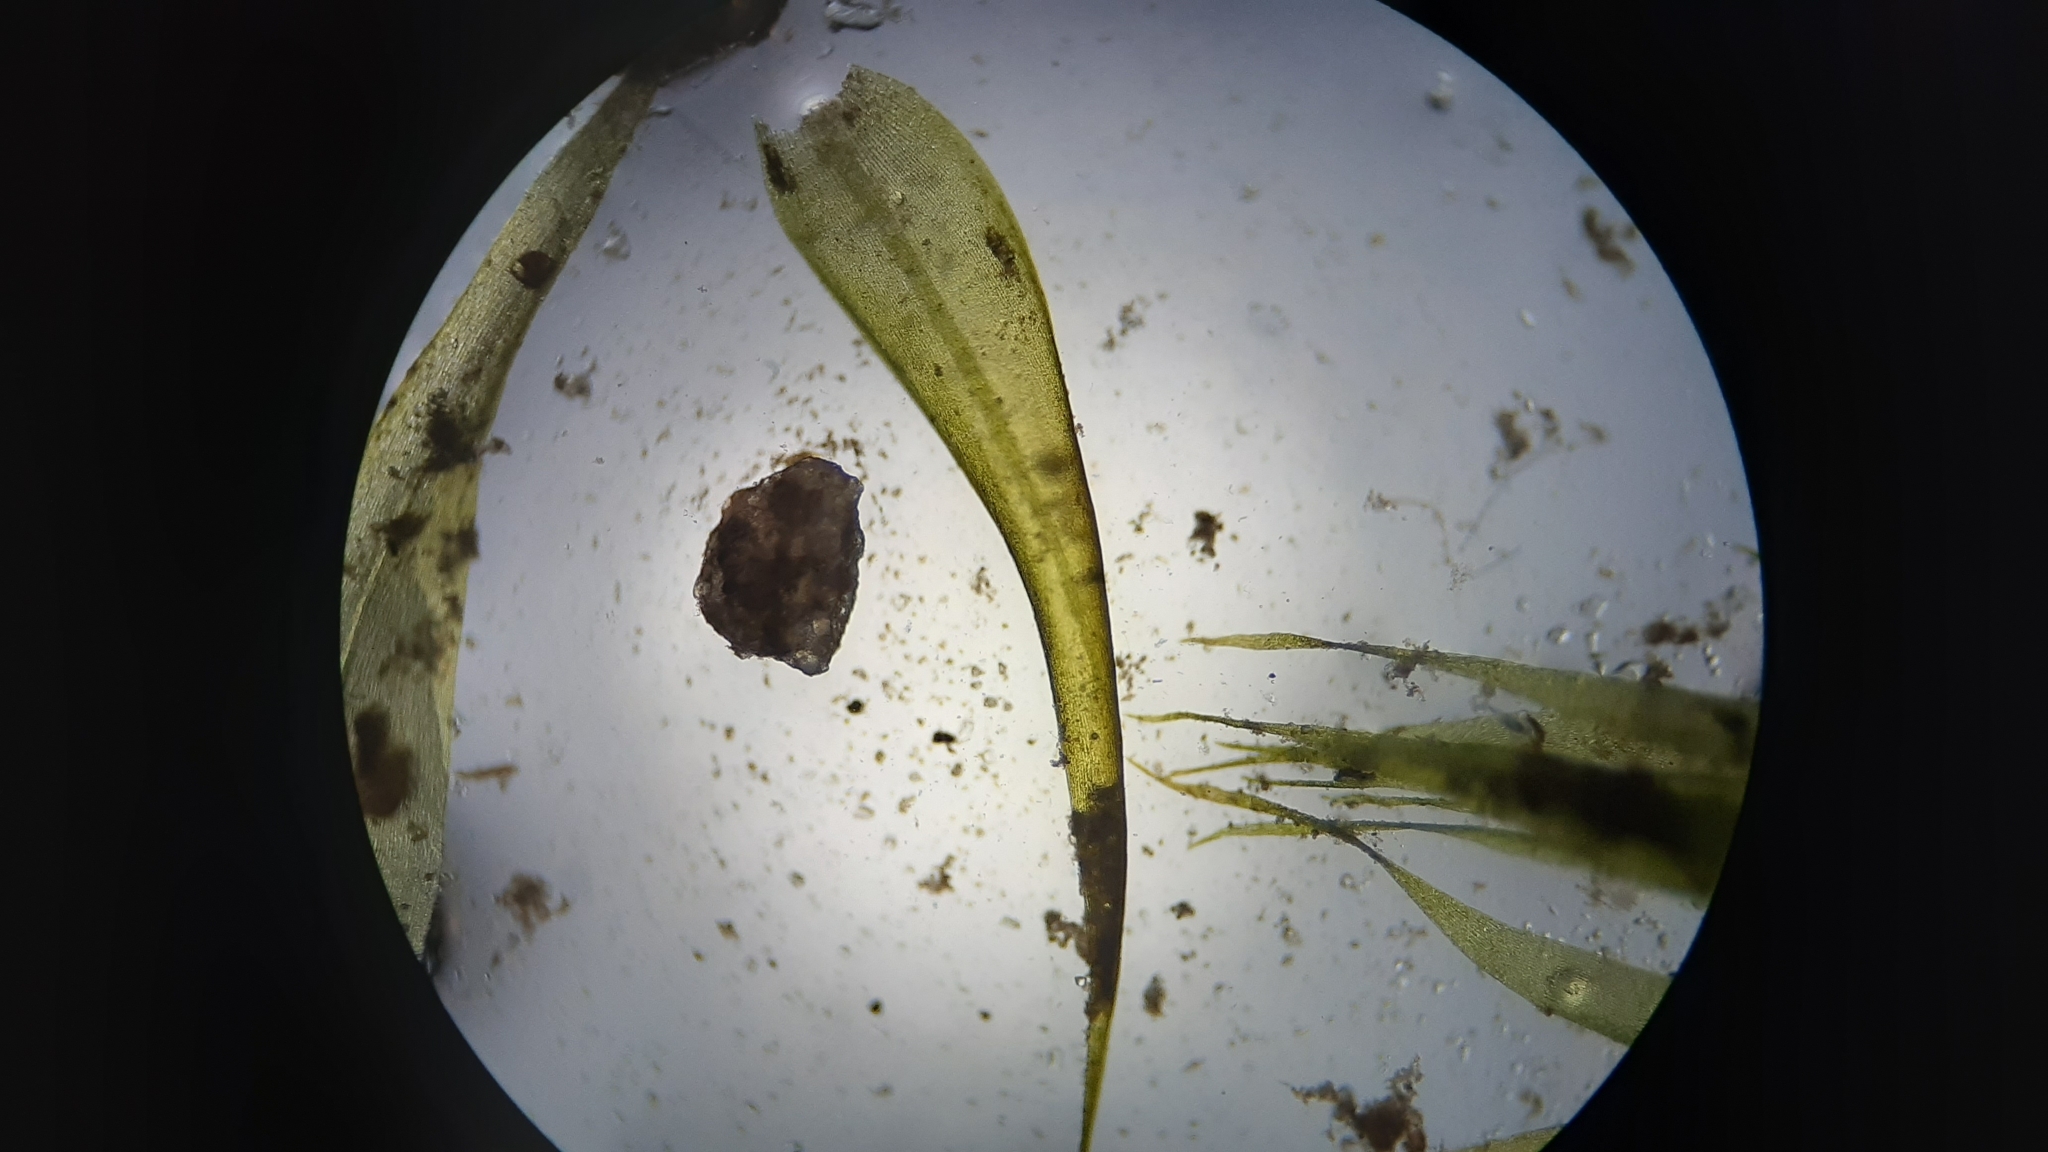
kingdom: Plantae
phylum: Bryophyta
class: Bryopsida
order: Hypnales
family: Fontinalaceae
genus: Dichelyma
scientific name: Dichelyma falcatum
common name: Lance-leaved claw moss
